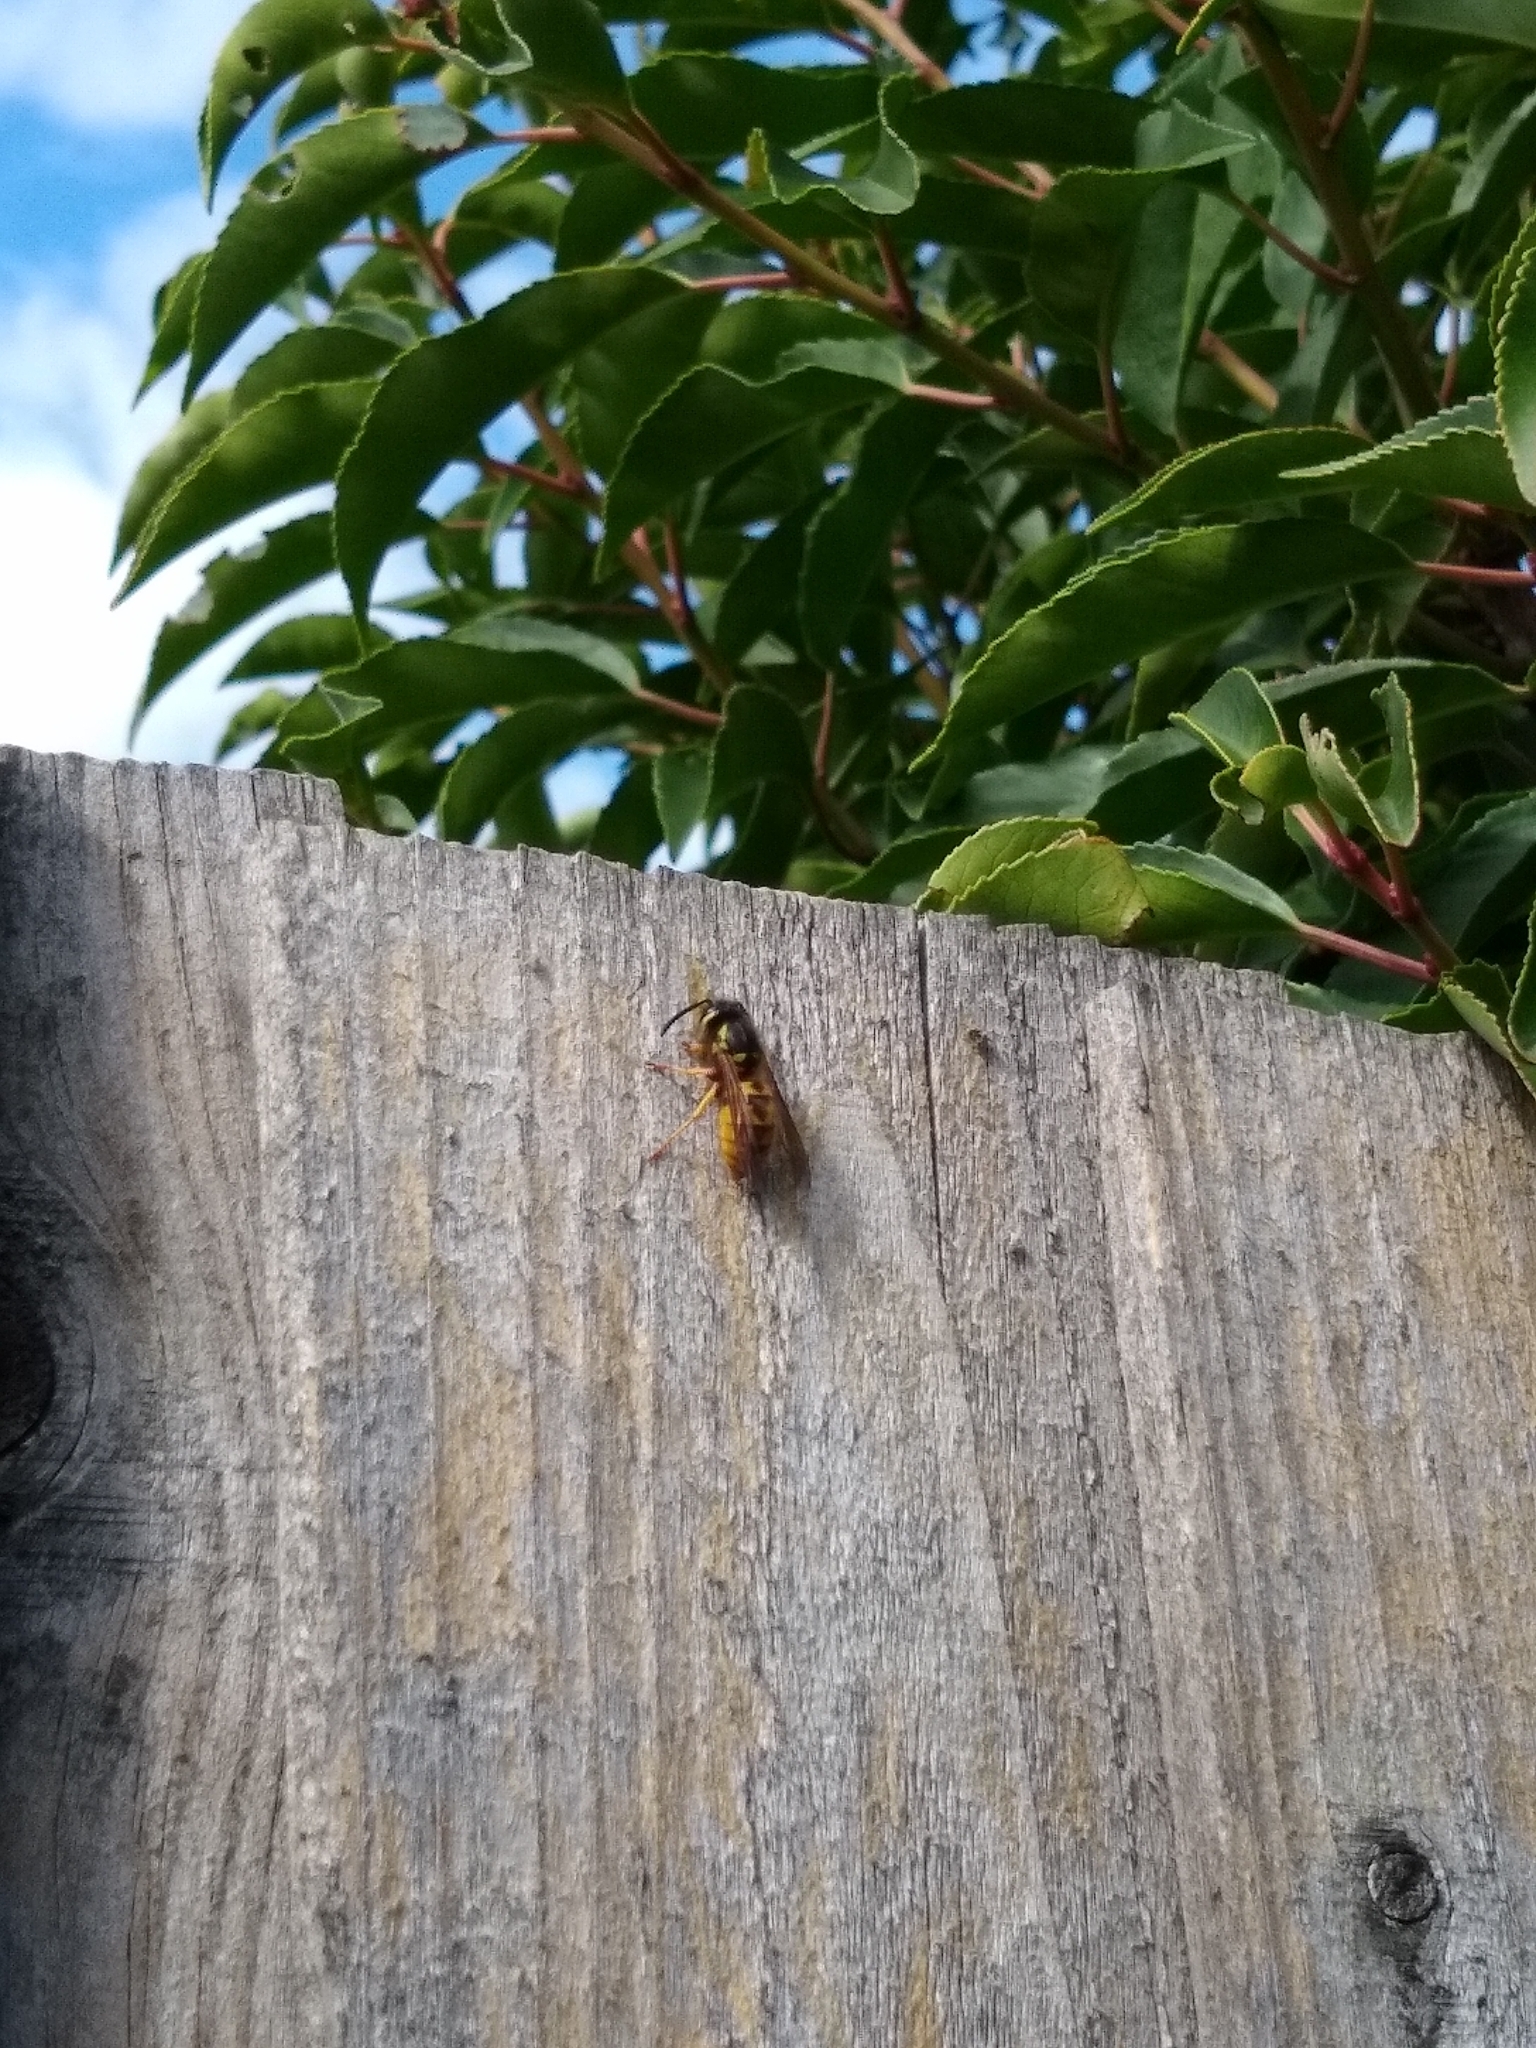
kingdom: Animalia
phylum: Arthropoda
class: Insecta
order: Hymenoptera
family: Vespidae
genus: Vespula
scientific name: Vespula germanica
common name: German wasp
